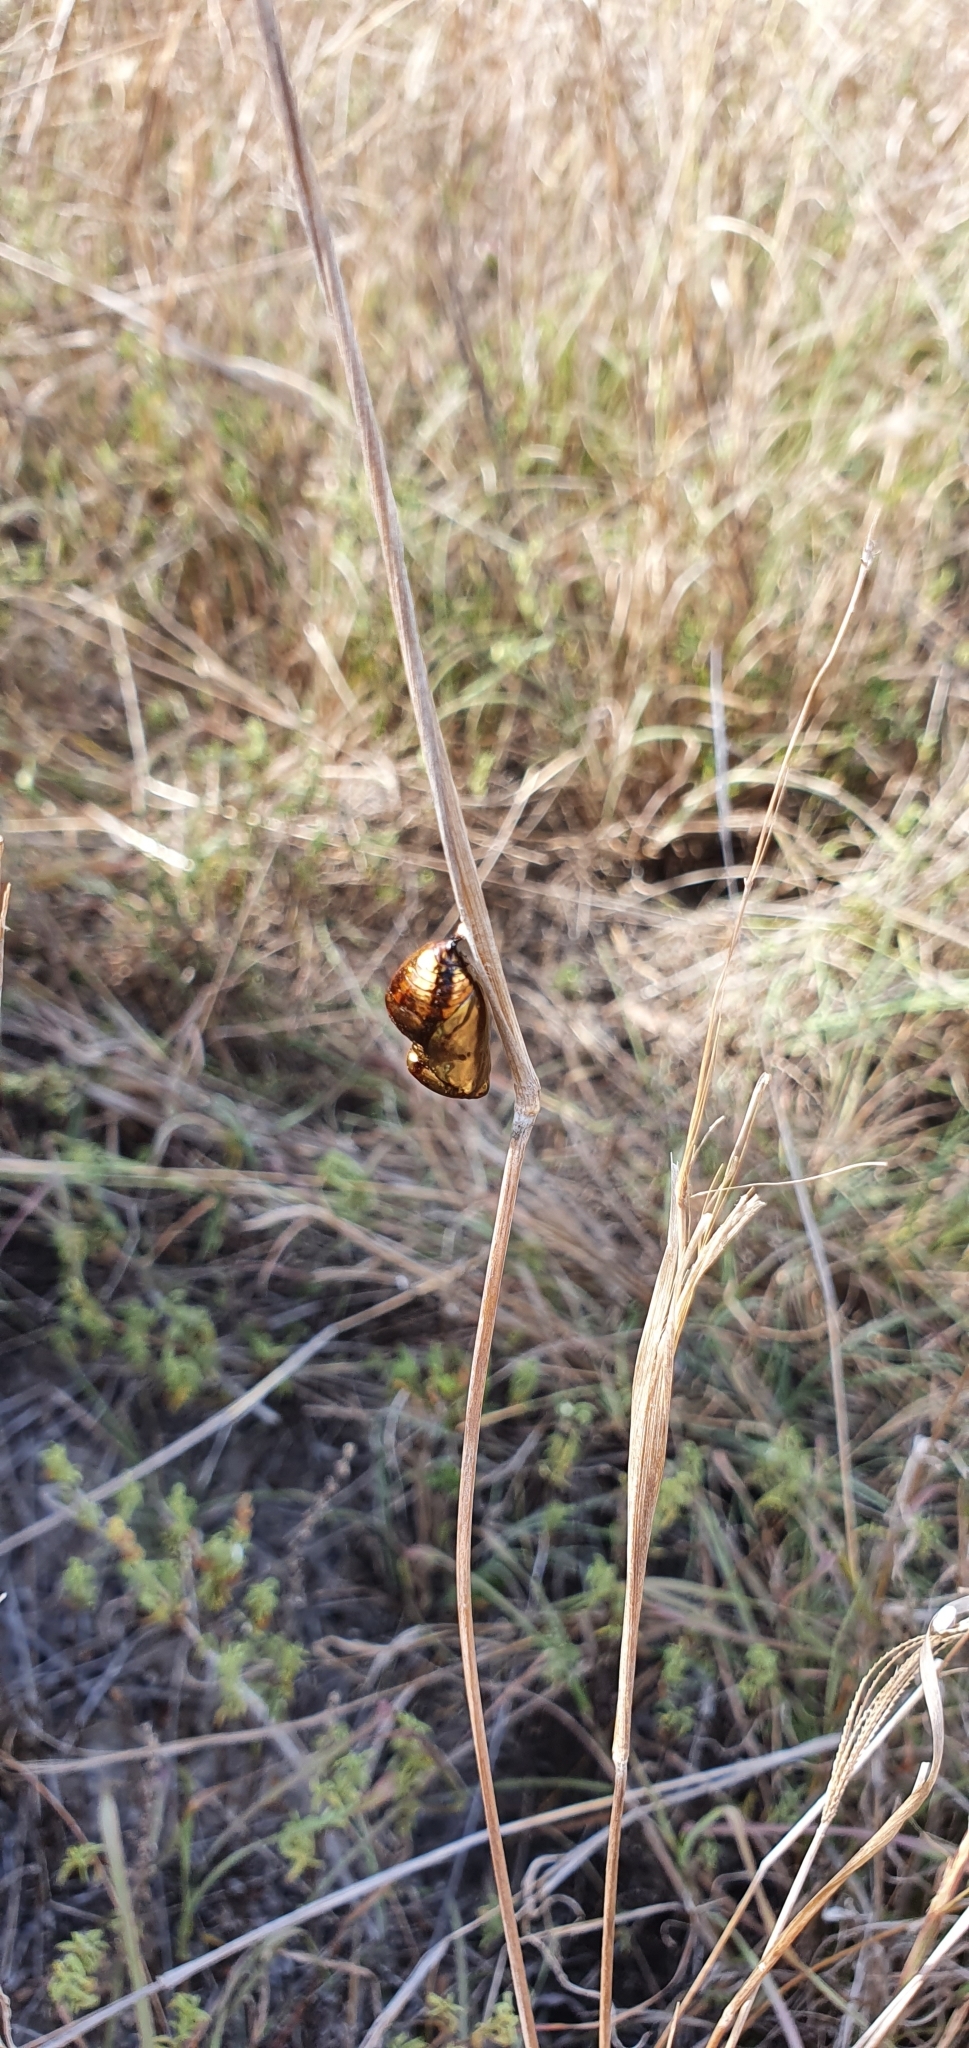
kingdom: Animalia
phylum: Arthropoda
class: Insecta
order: Lepidoptera
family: Nymphalidae
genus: Euploea
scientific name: Euploea core
